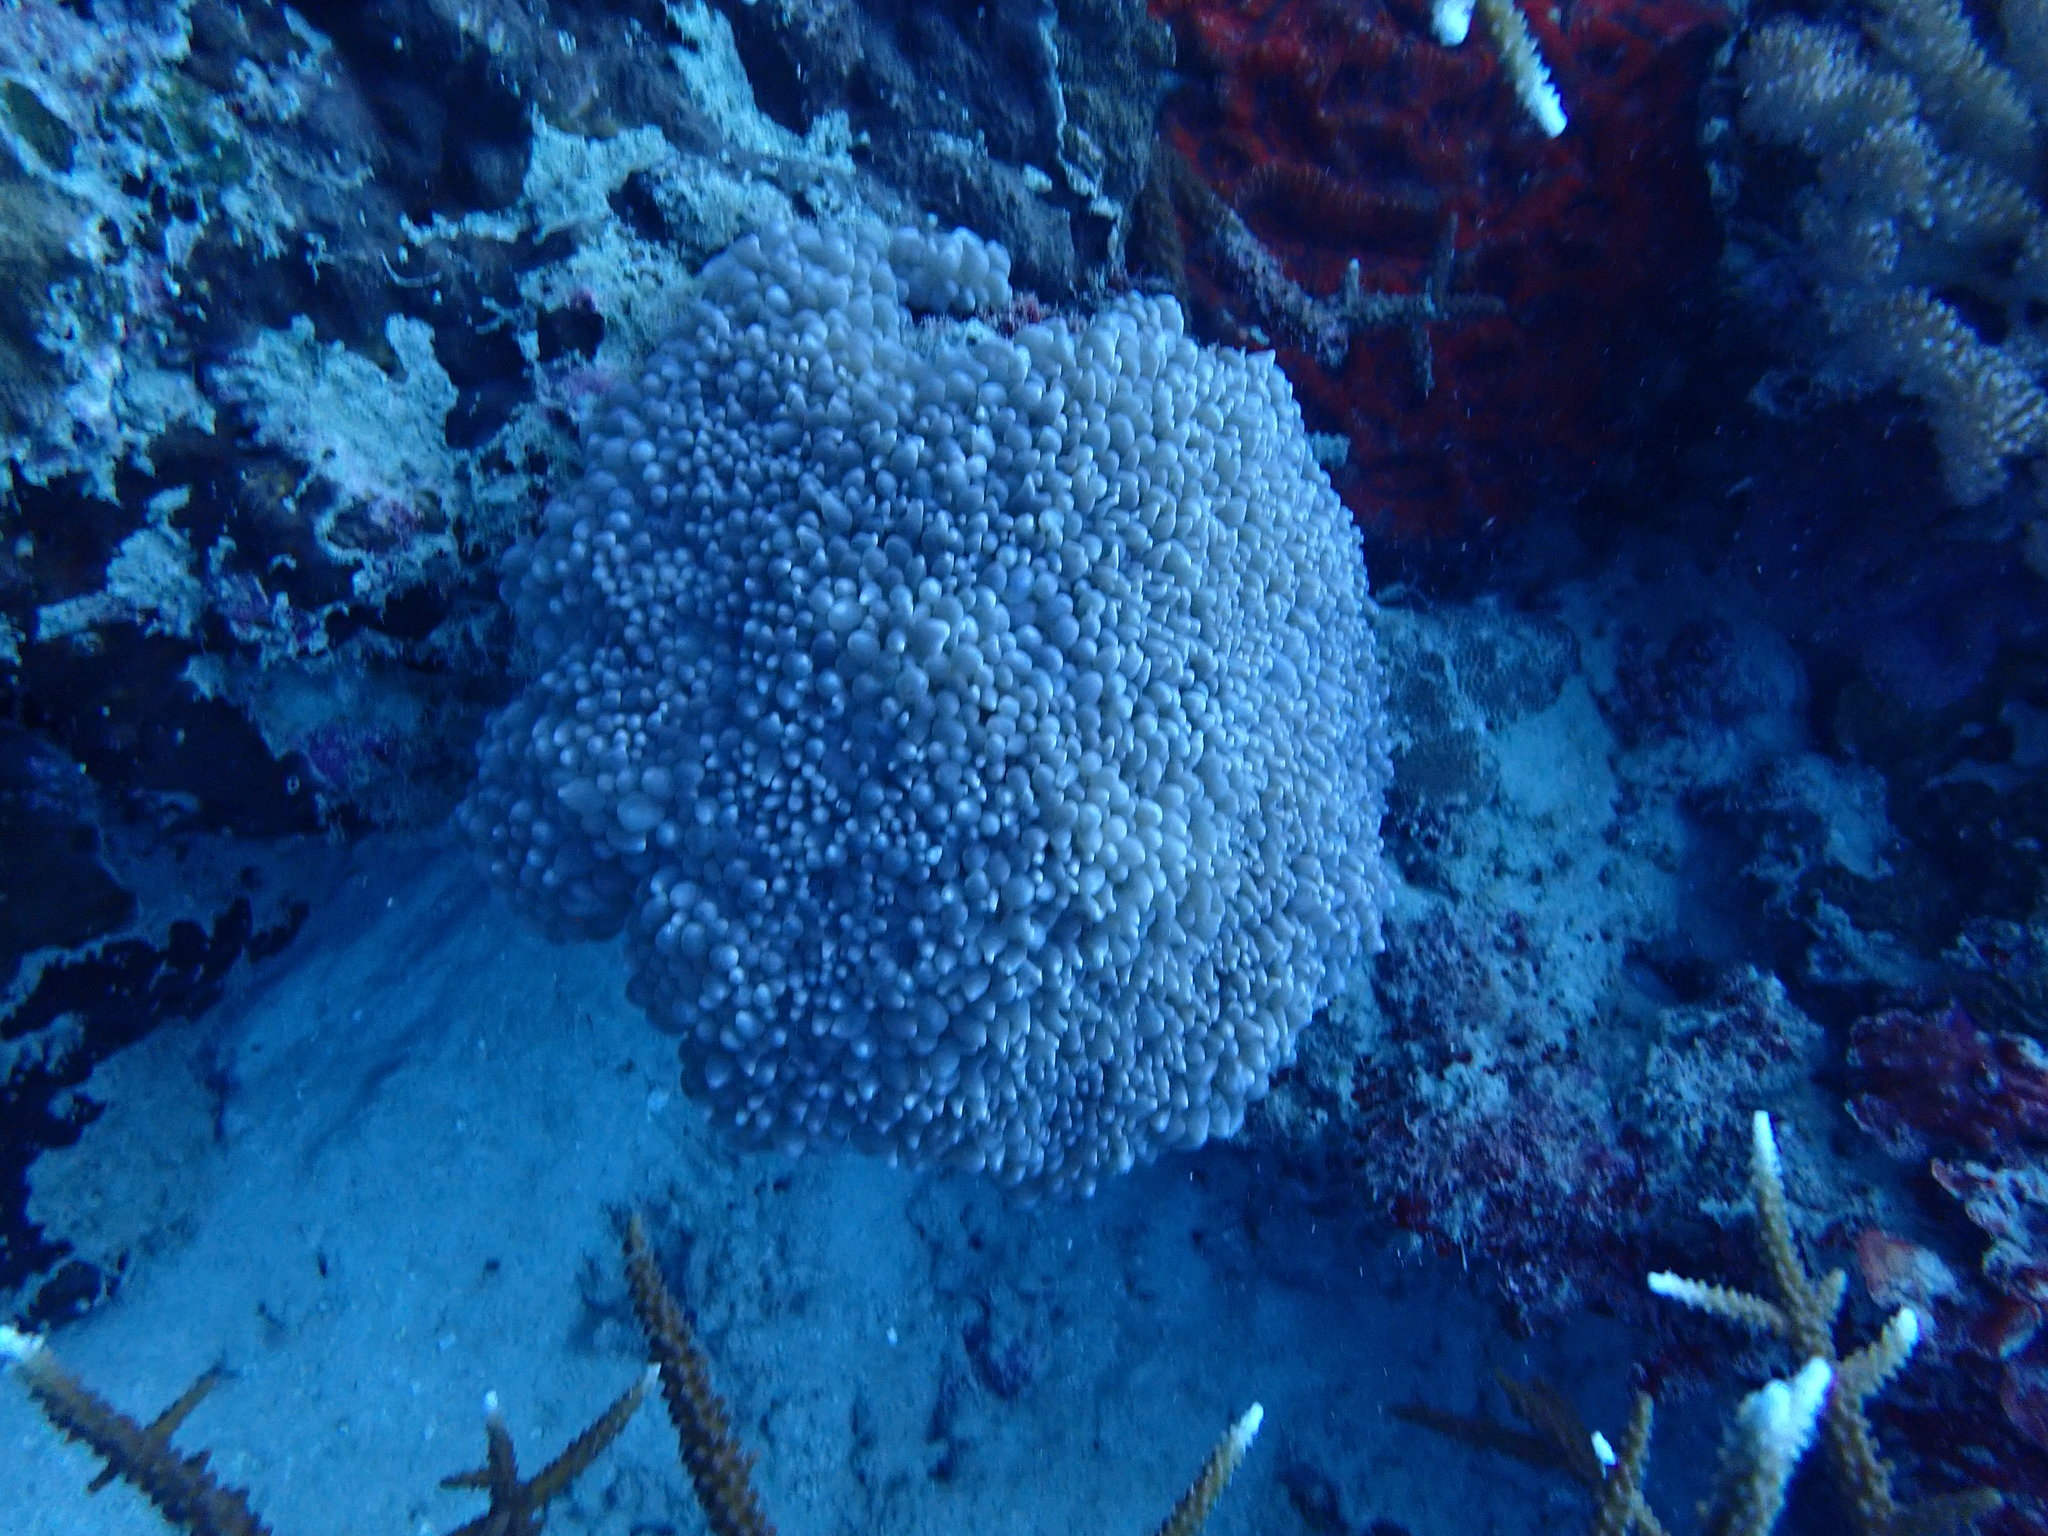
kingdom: Animalia
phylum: Cnidaria
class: Anthozoa
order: Scleractinia
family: Plerogyridae
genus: Physogyra
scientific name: Physogyra lichtensteini
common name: Tipped bubblegum coral
